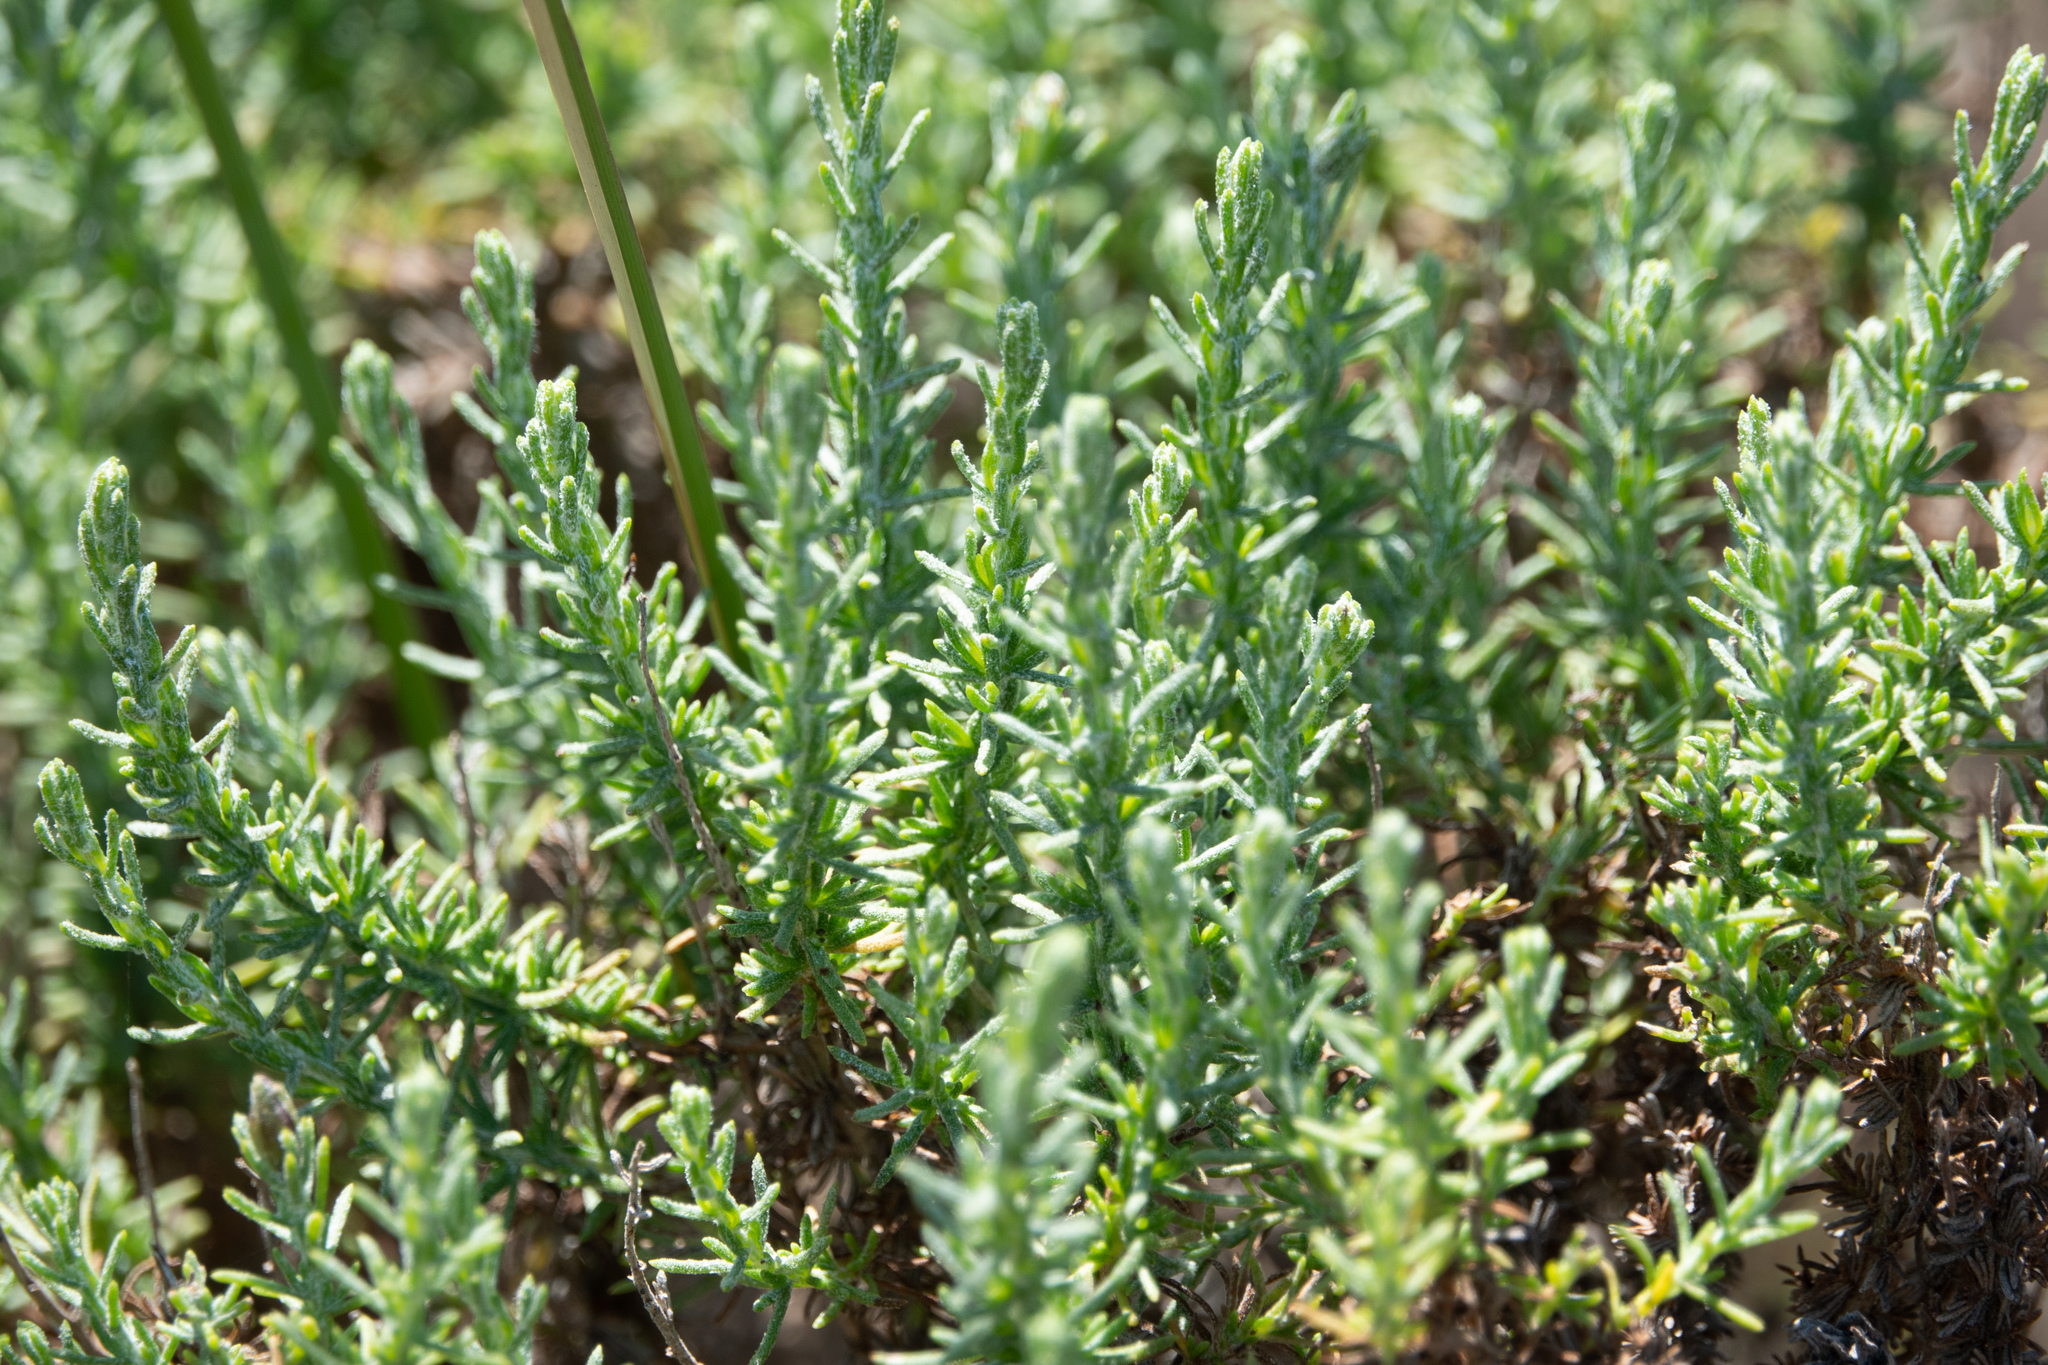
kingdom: Plantae
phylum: Tracheophyta
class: Magnoliopsida
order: Asterales
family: Asteraceae
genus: Ericameria
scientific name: Ericameria ericoides
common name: California goldenbush
